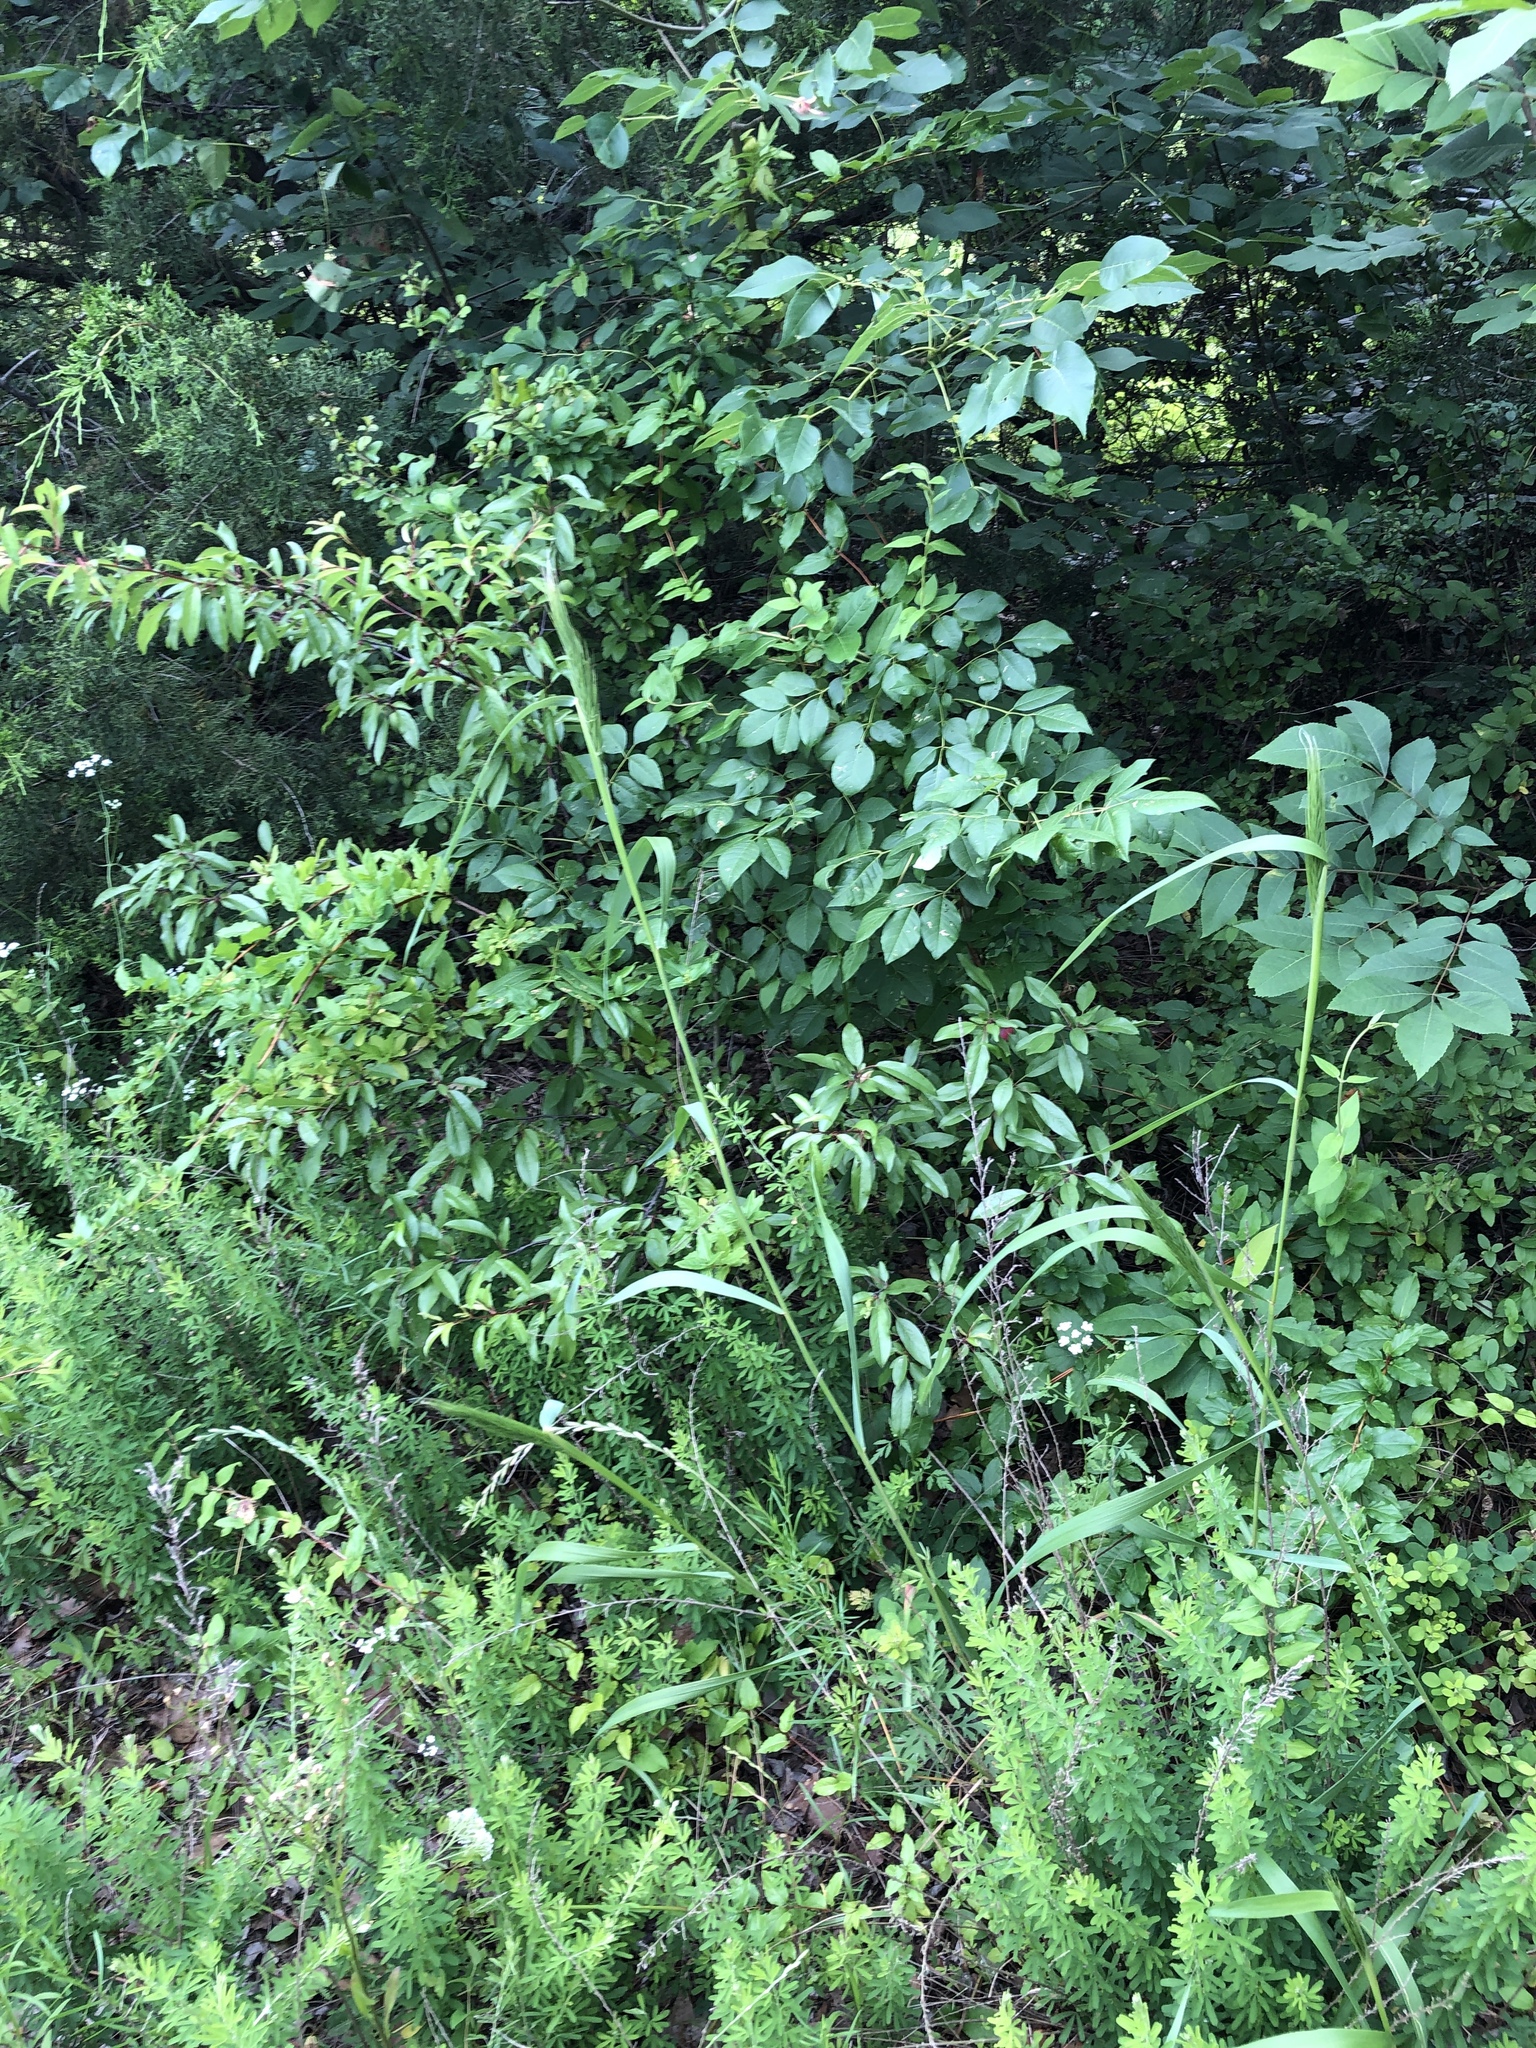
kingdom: Plantae
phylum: Tracheophyta
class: Liliopsida
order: Poales
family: Poaceae
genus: Elymus
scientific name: Elymus virginicus
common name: Common eastern wildrye
